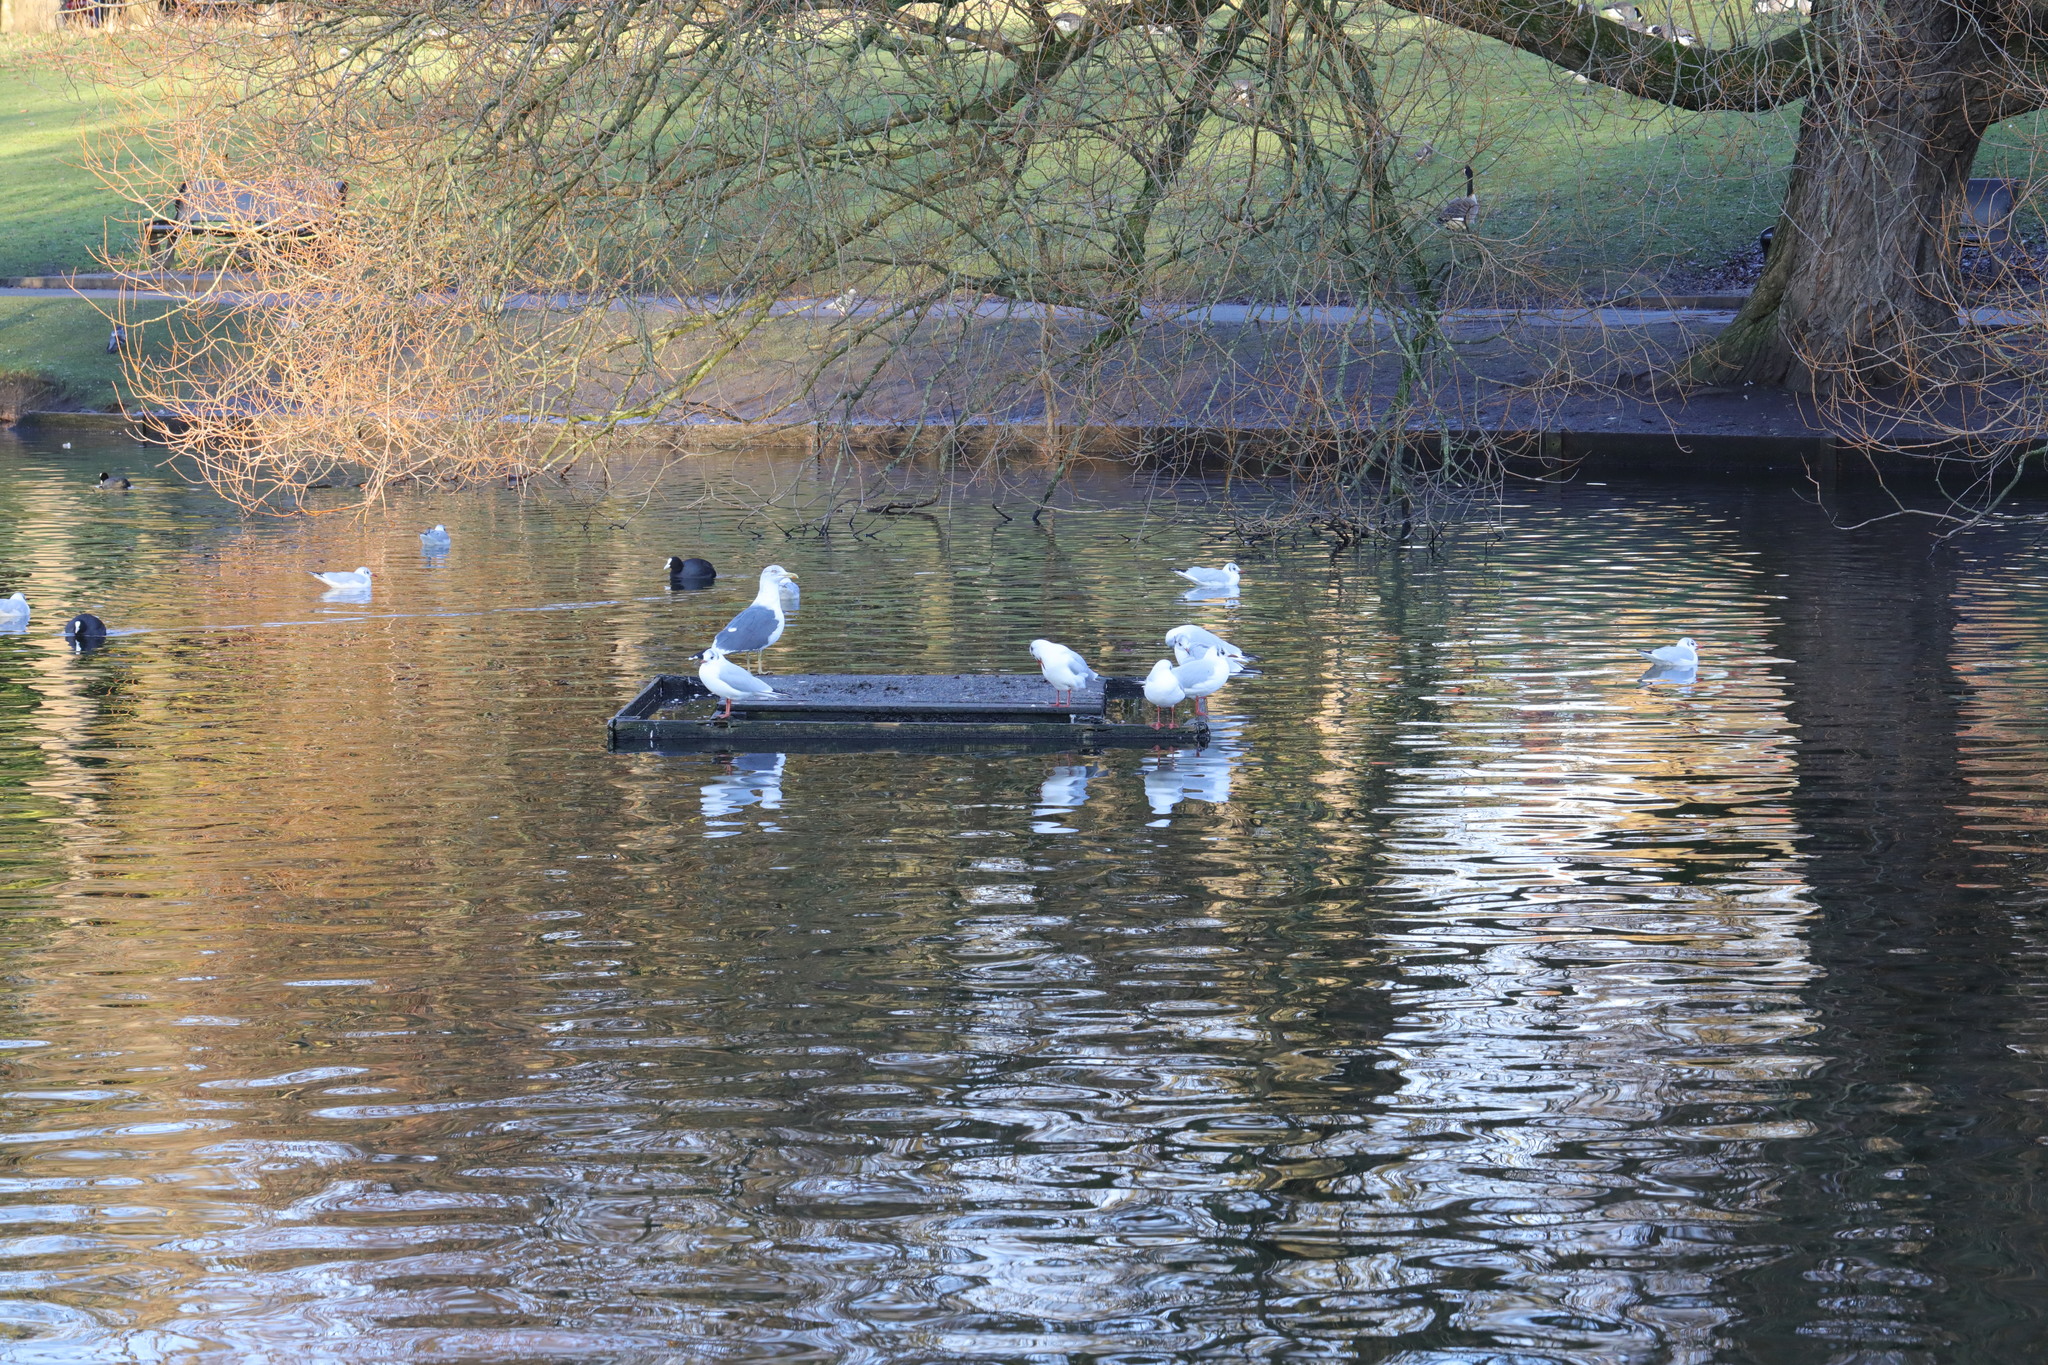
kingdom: Animalia
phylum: Chordata
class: Aves
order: Gruiformes
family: Rallidae
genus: Fulica
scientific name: Fulica atra
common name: Eurasian coot
